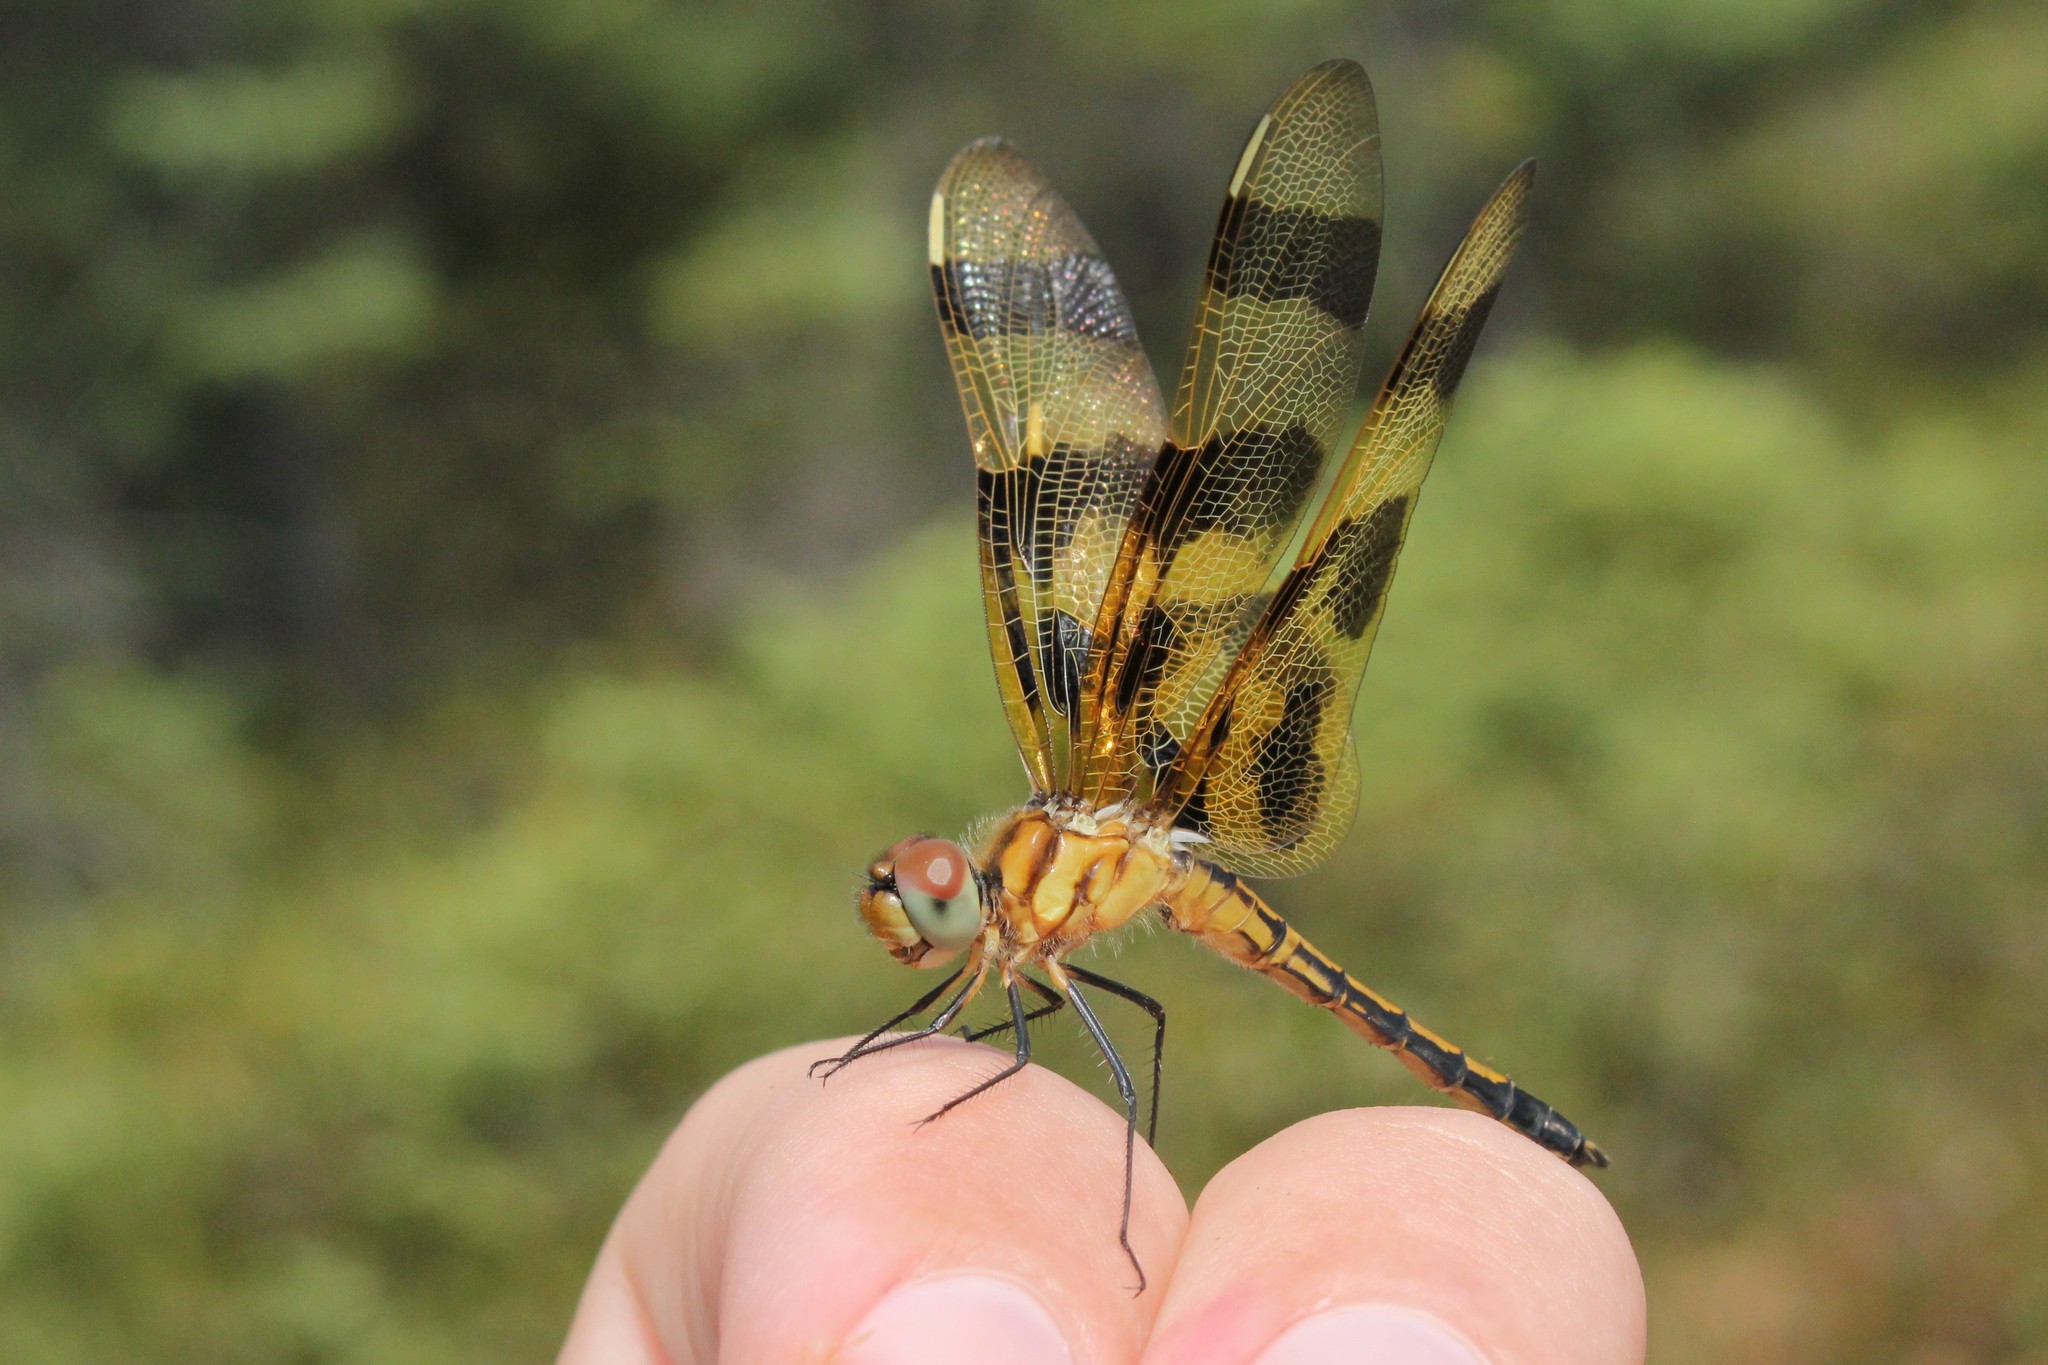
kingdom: Animalia
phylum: Arthropoda
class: Insecta
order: Odonata
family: Libellulidae
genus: Celithemis
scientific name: Celithemis eponina
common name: Halloween pennant
